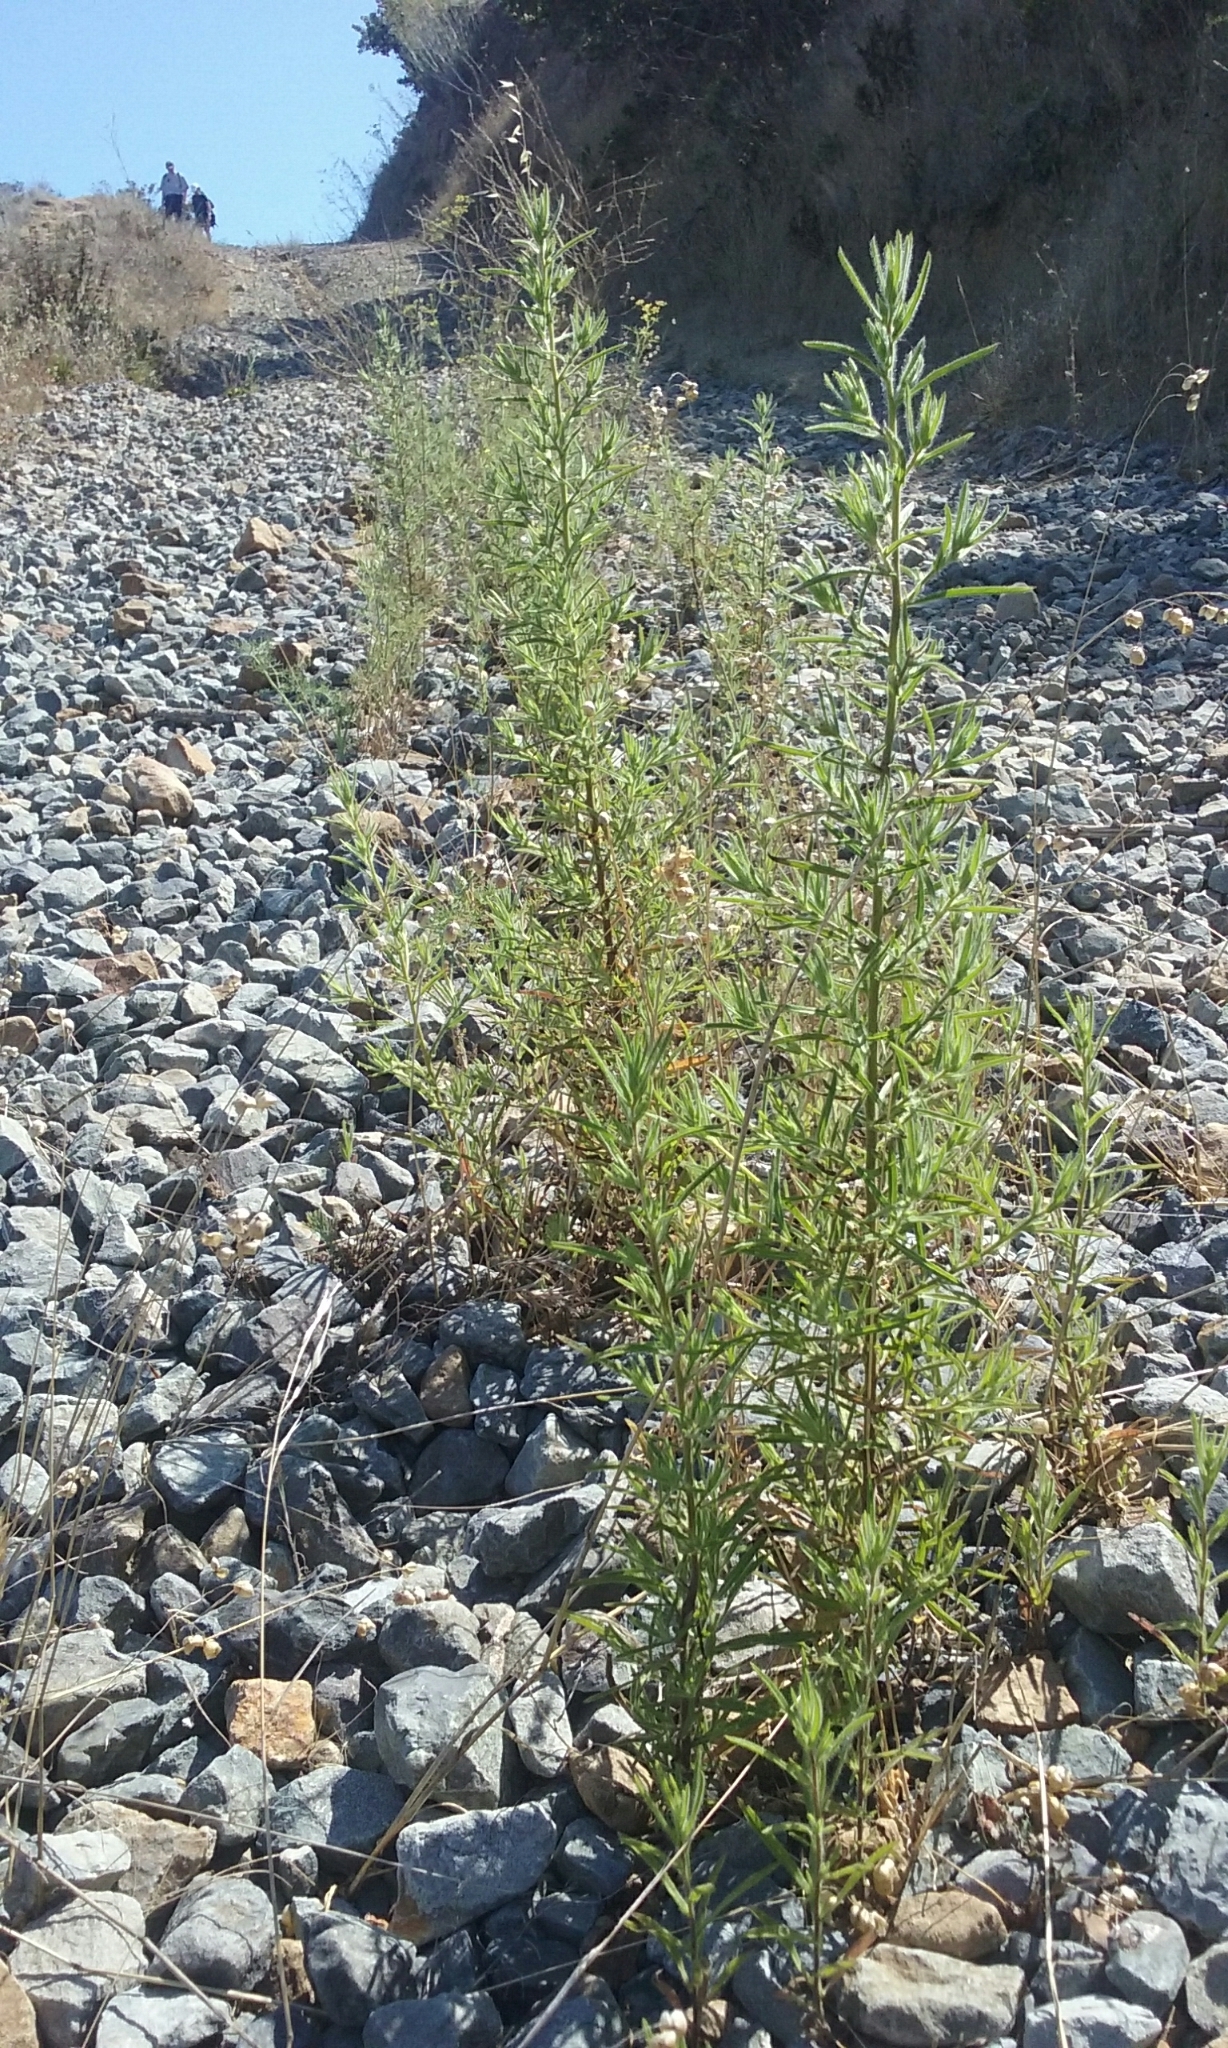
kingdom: Plantae
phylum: Tracheophyta
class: Magnoliopsida
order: Asterales
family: Asteraceae
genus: Dittrichia
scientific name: Dittrichia graveolens
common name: Stinking fleabane
